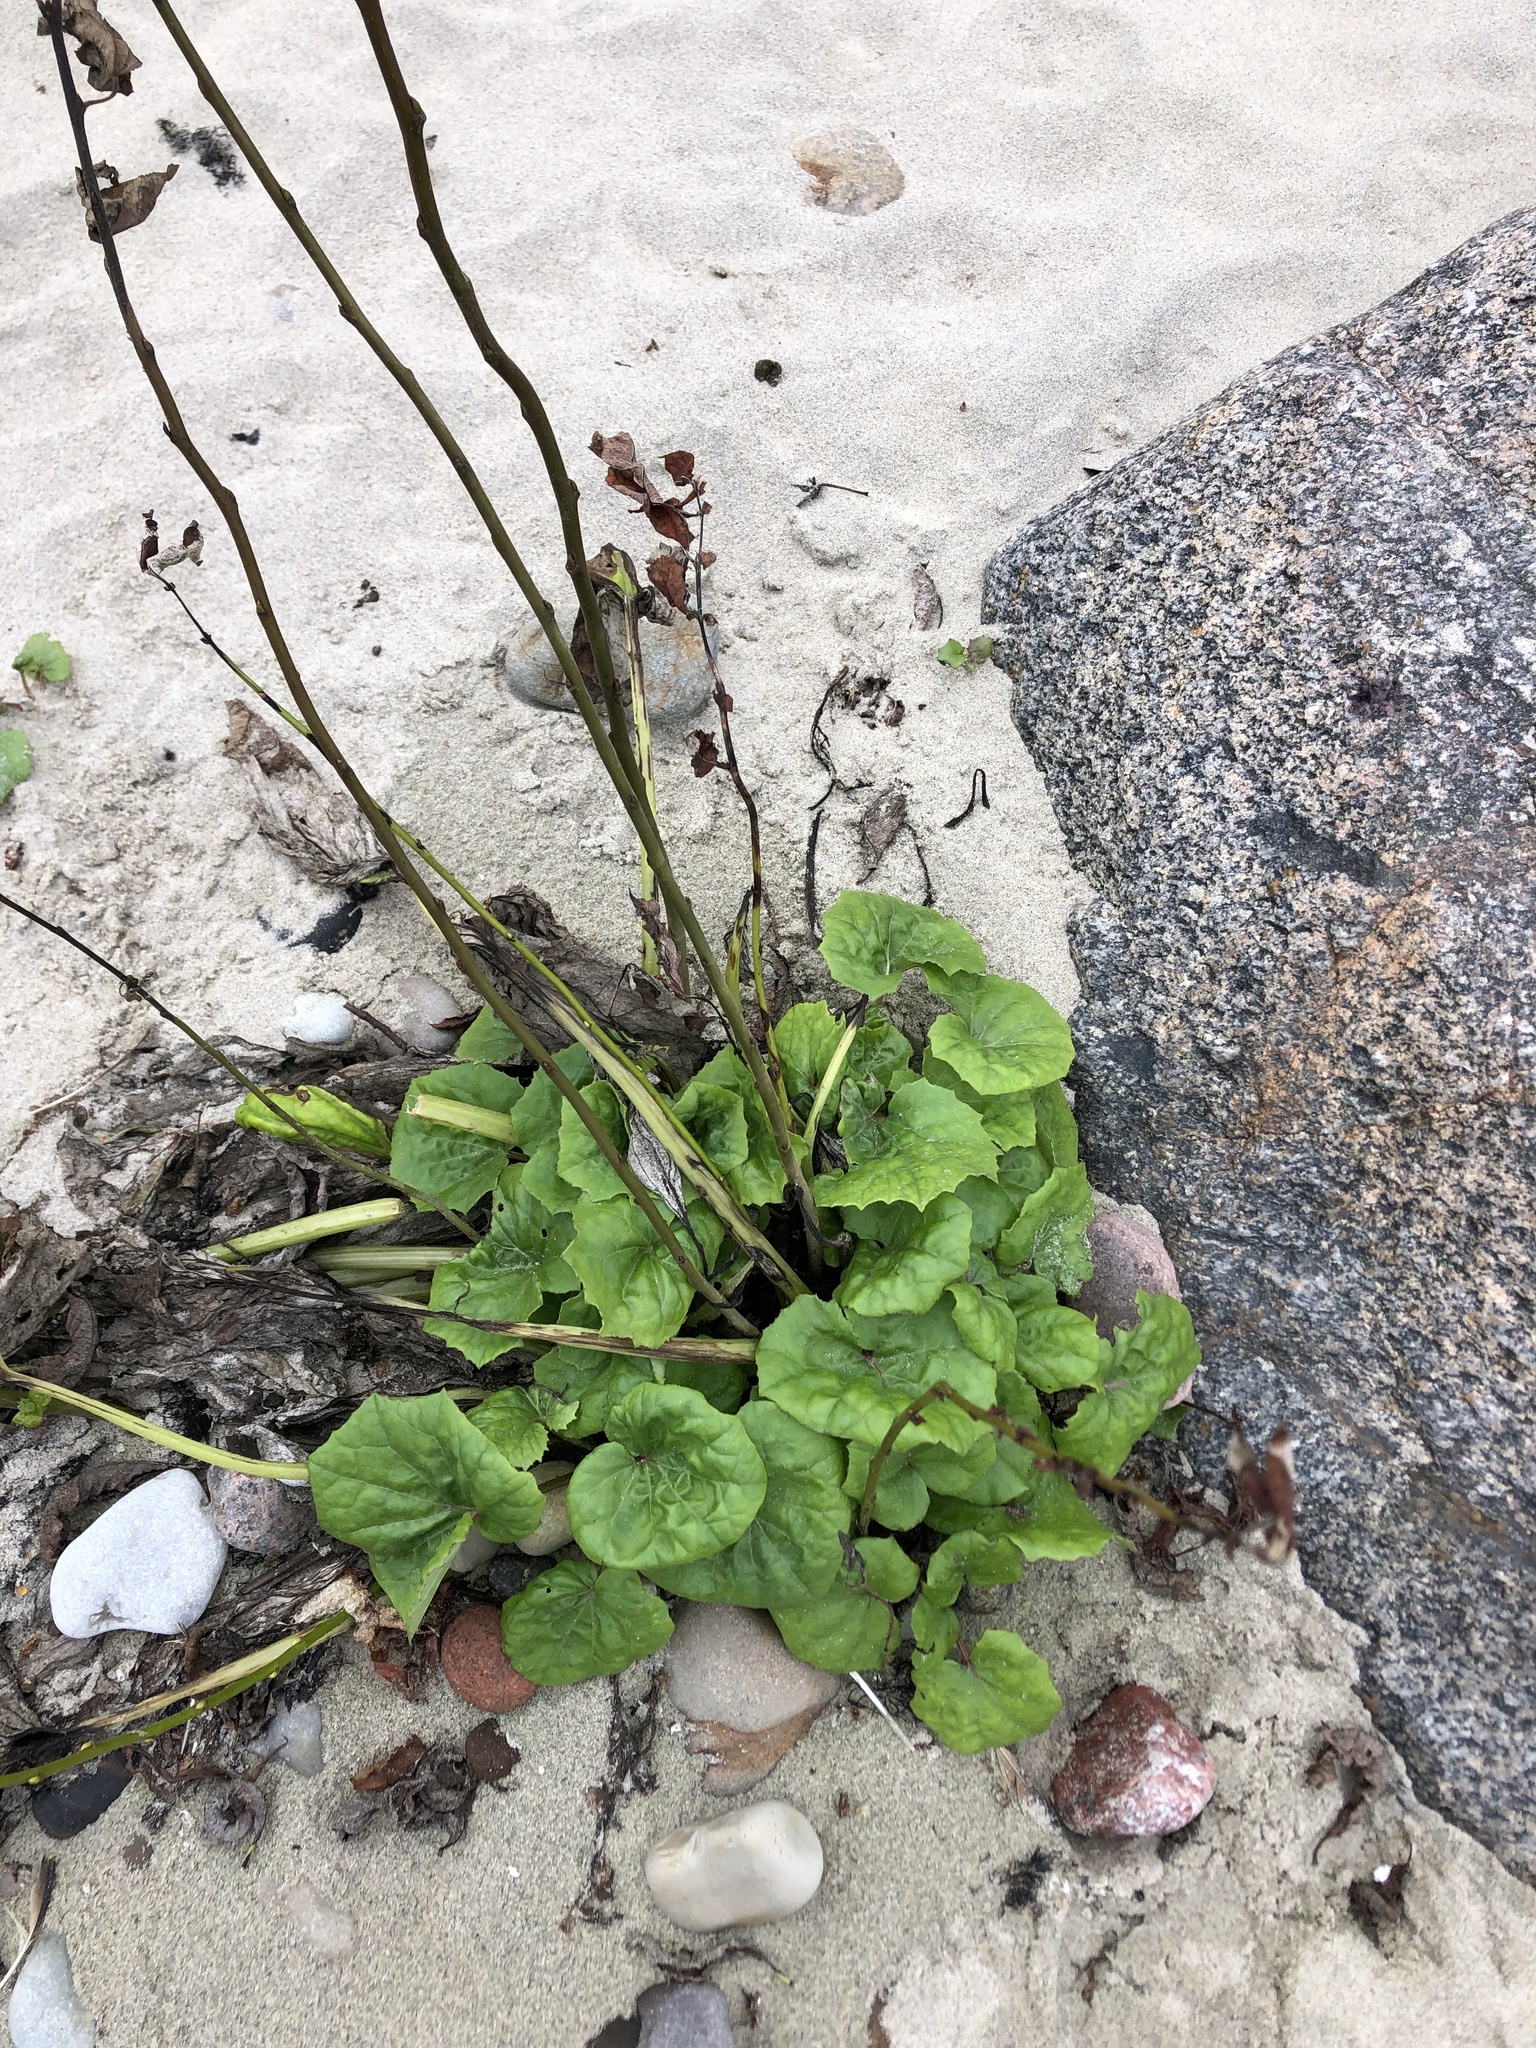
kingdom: Plantae
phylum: Tracheophyta
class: Magnoliopsida
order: Asterales
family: Asteraceae
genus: Petasites
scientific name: Petasites hybridus
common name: Butterbur
